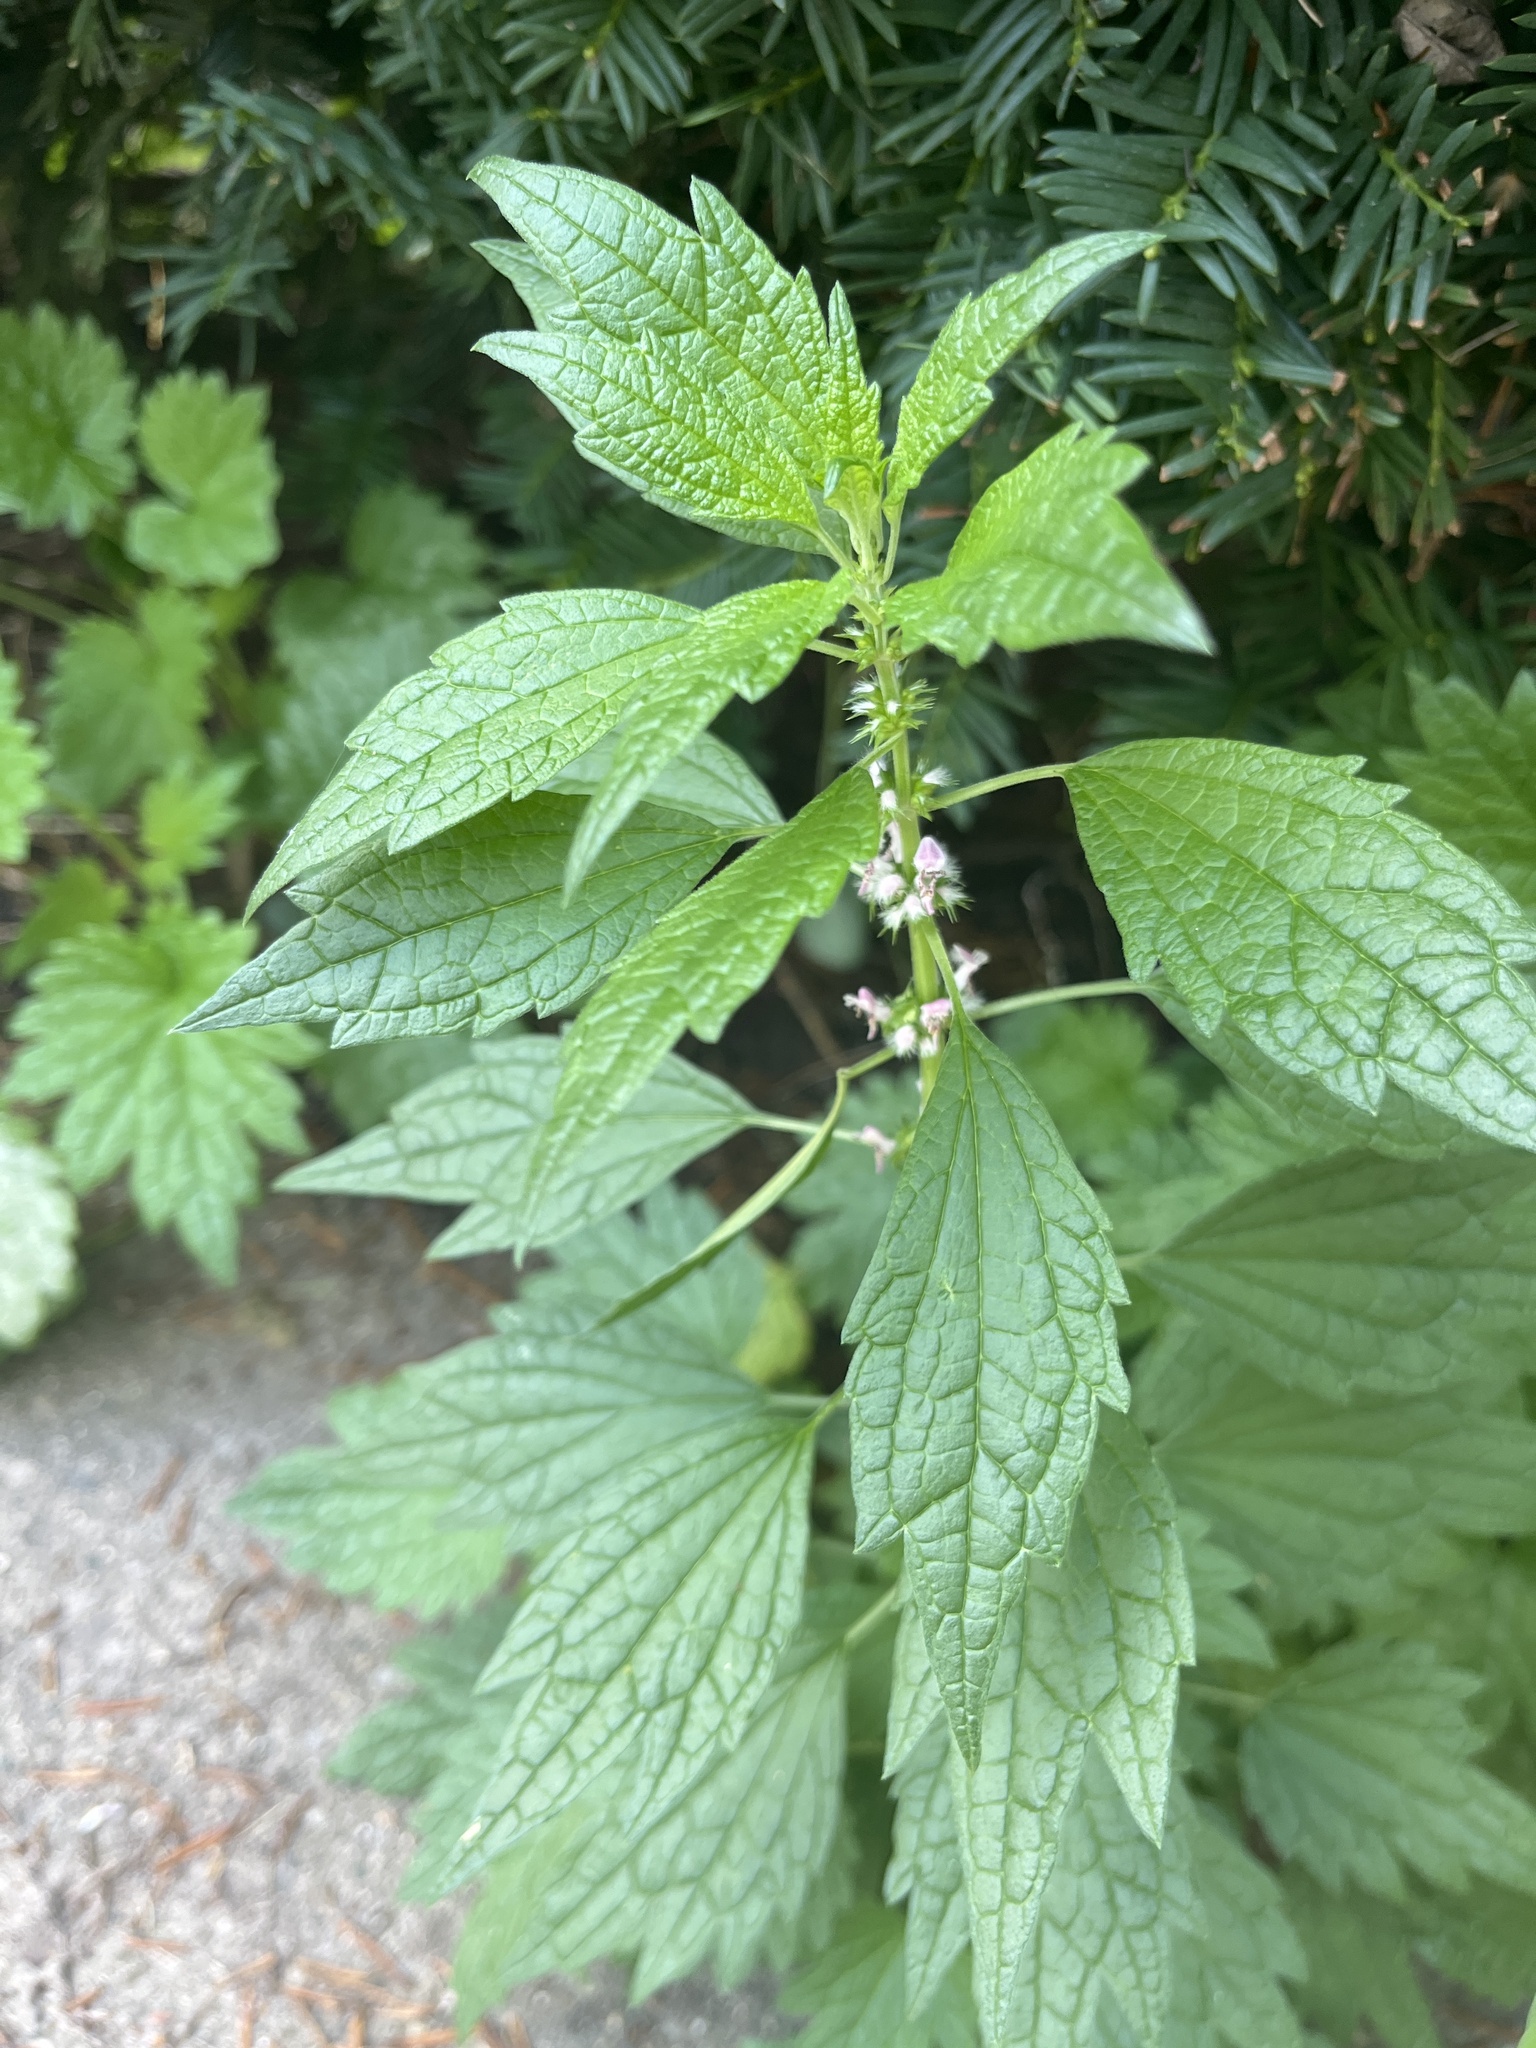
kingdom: Plantae
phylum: Tracheophyta
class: Magnoliopsida
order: Lamiales
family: Lamiaceae
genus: Leonurus
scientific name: Leonurus cardiaca
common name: Motherwort
